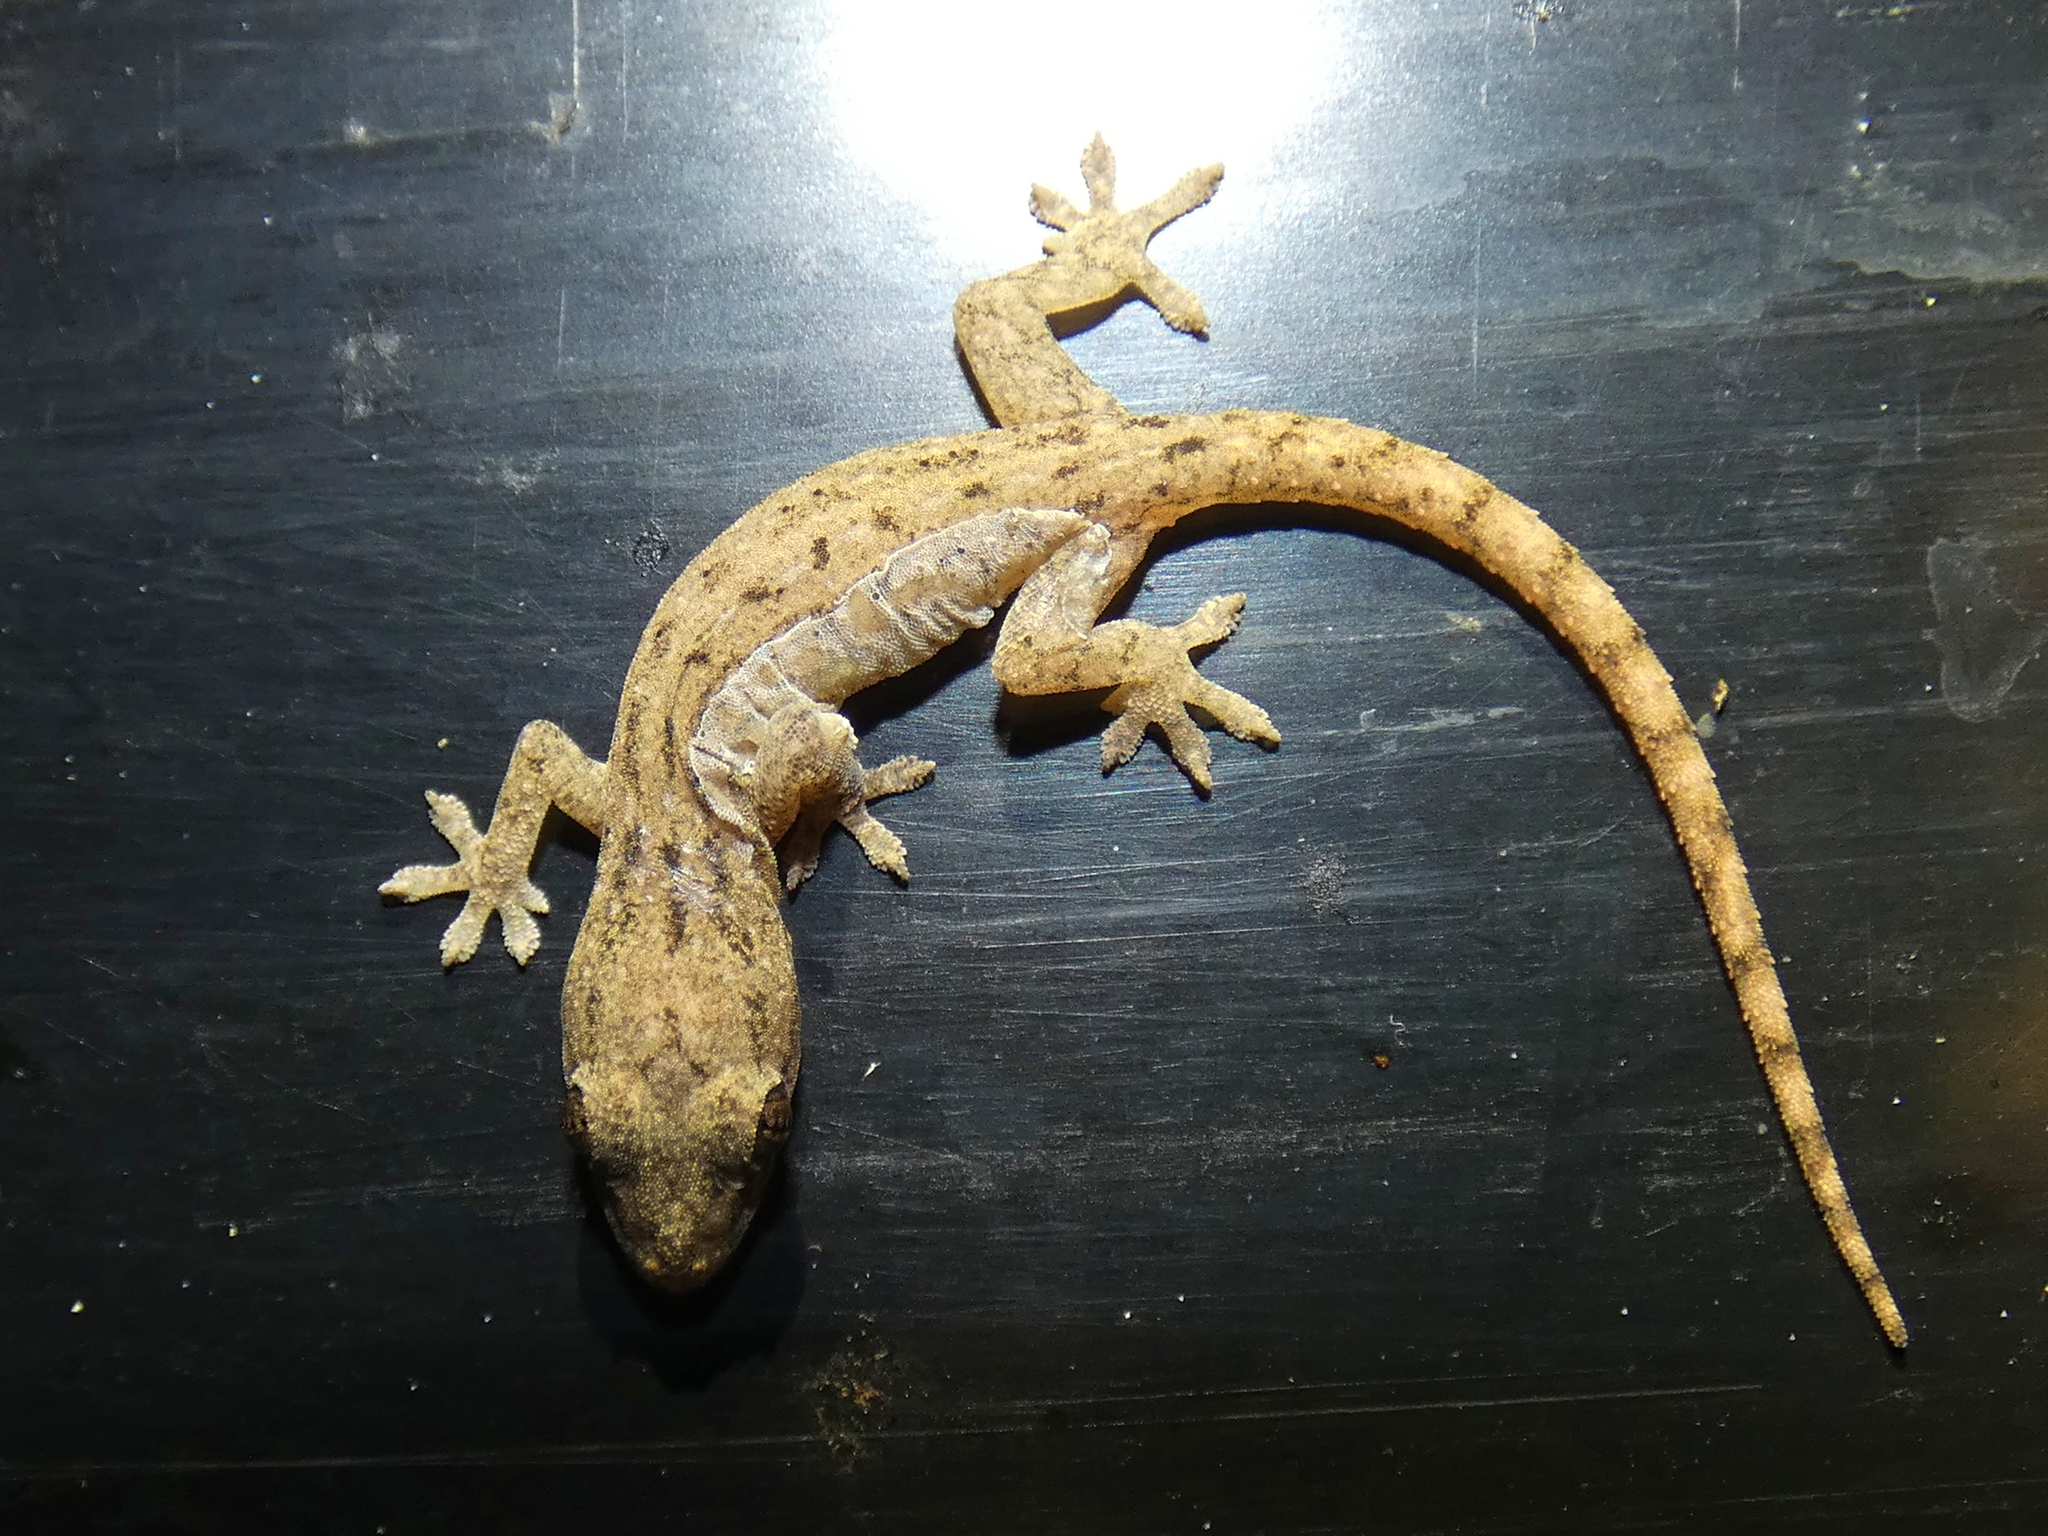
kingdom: Animalia
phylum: Chordata
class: Squamata
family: Gekkonidae
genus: Hemidactylus
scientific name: Hemidactylus frenatus
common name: Common house gecko
